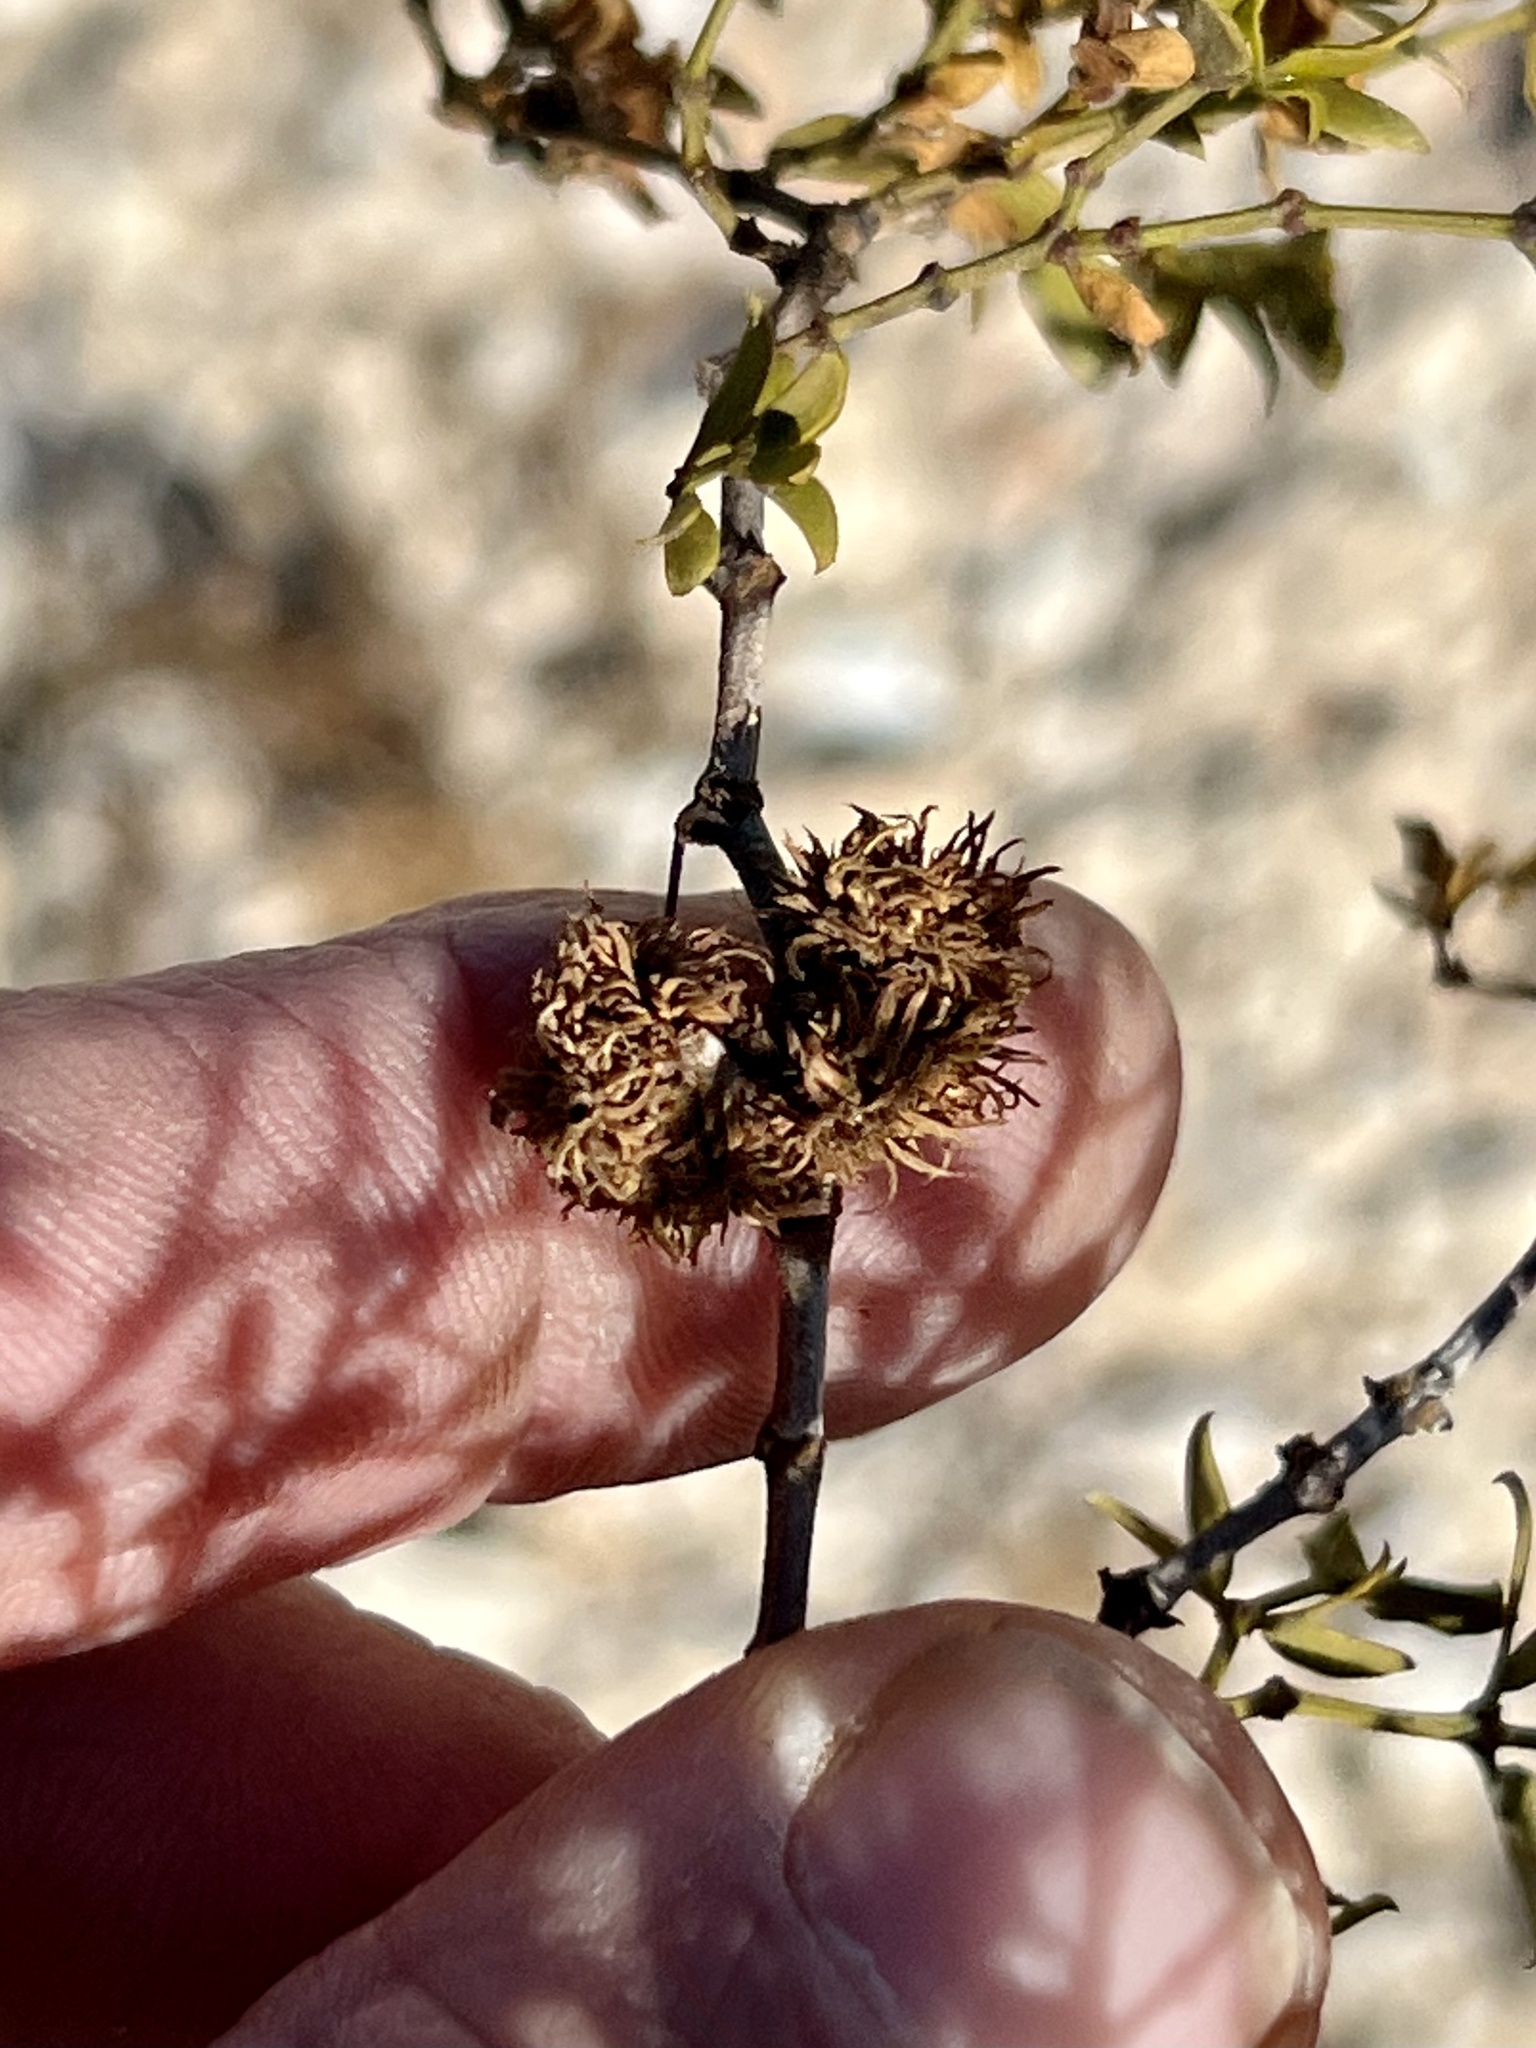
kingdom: Animalia
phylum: Arthropoda
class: Insecta
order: Diptera
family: Cecidomyiidae
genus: Asphondylia
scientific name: Asphondylia rosetta
